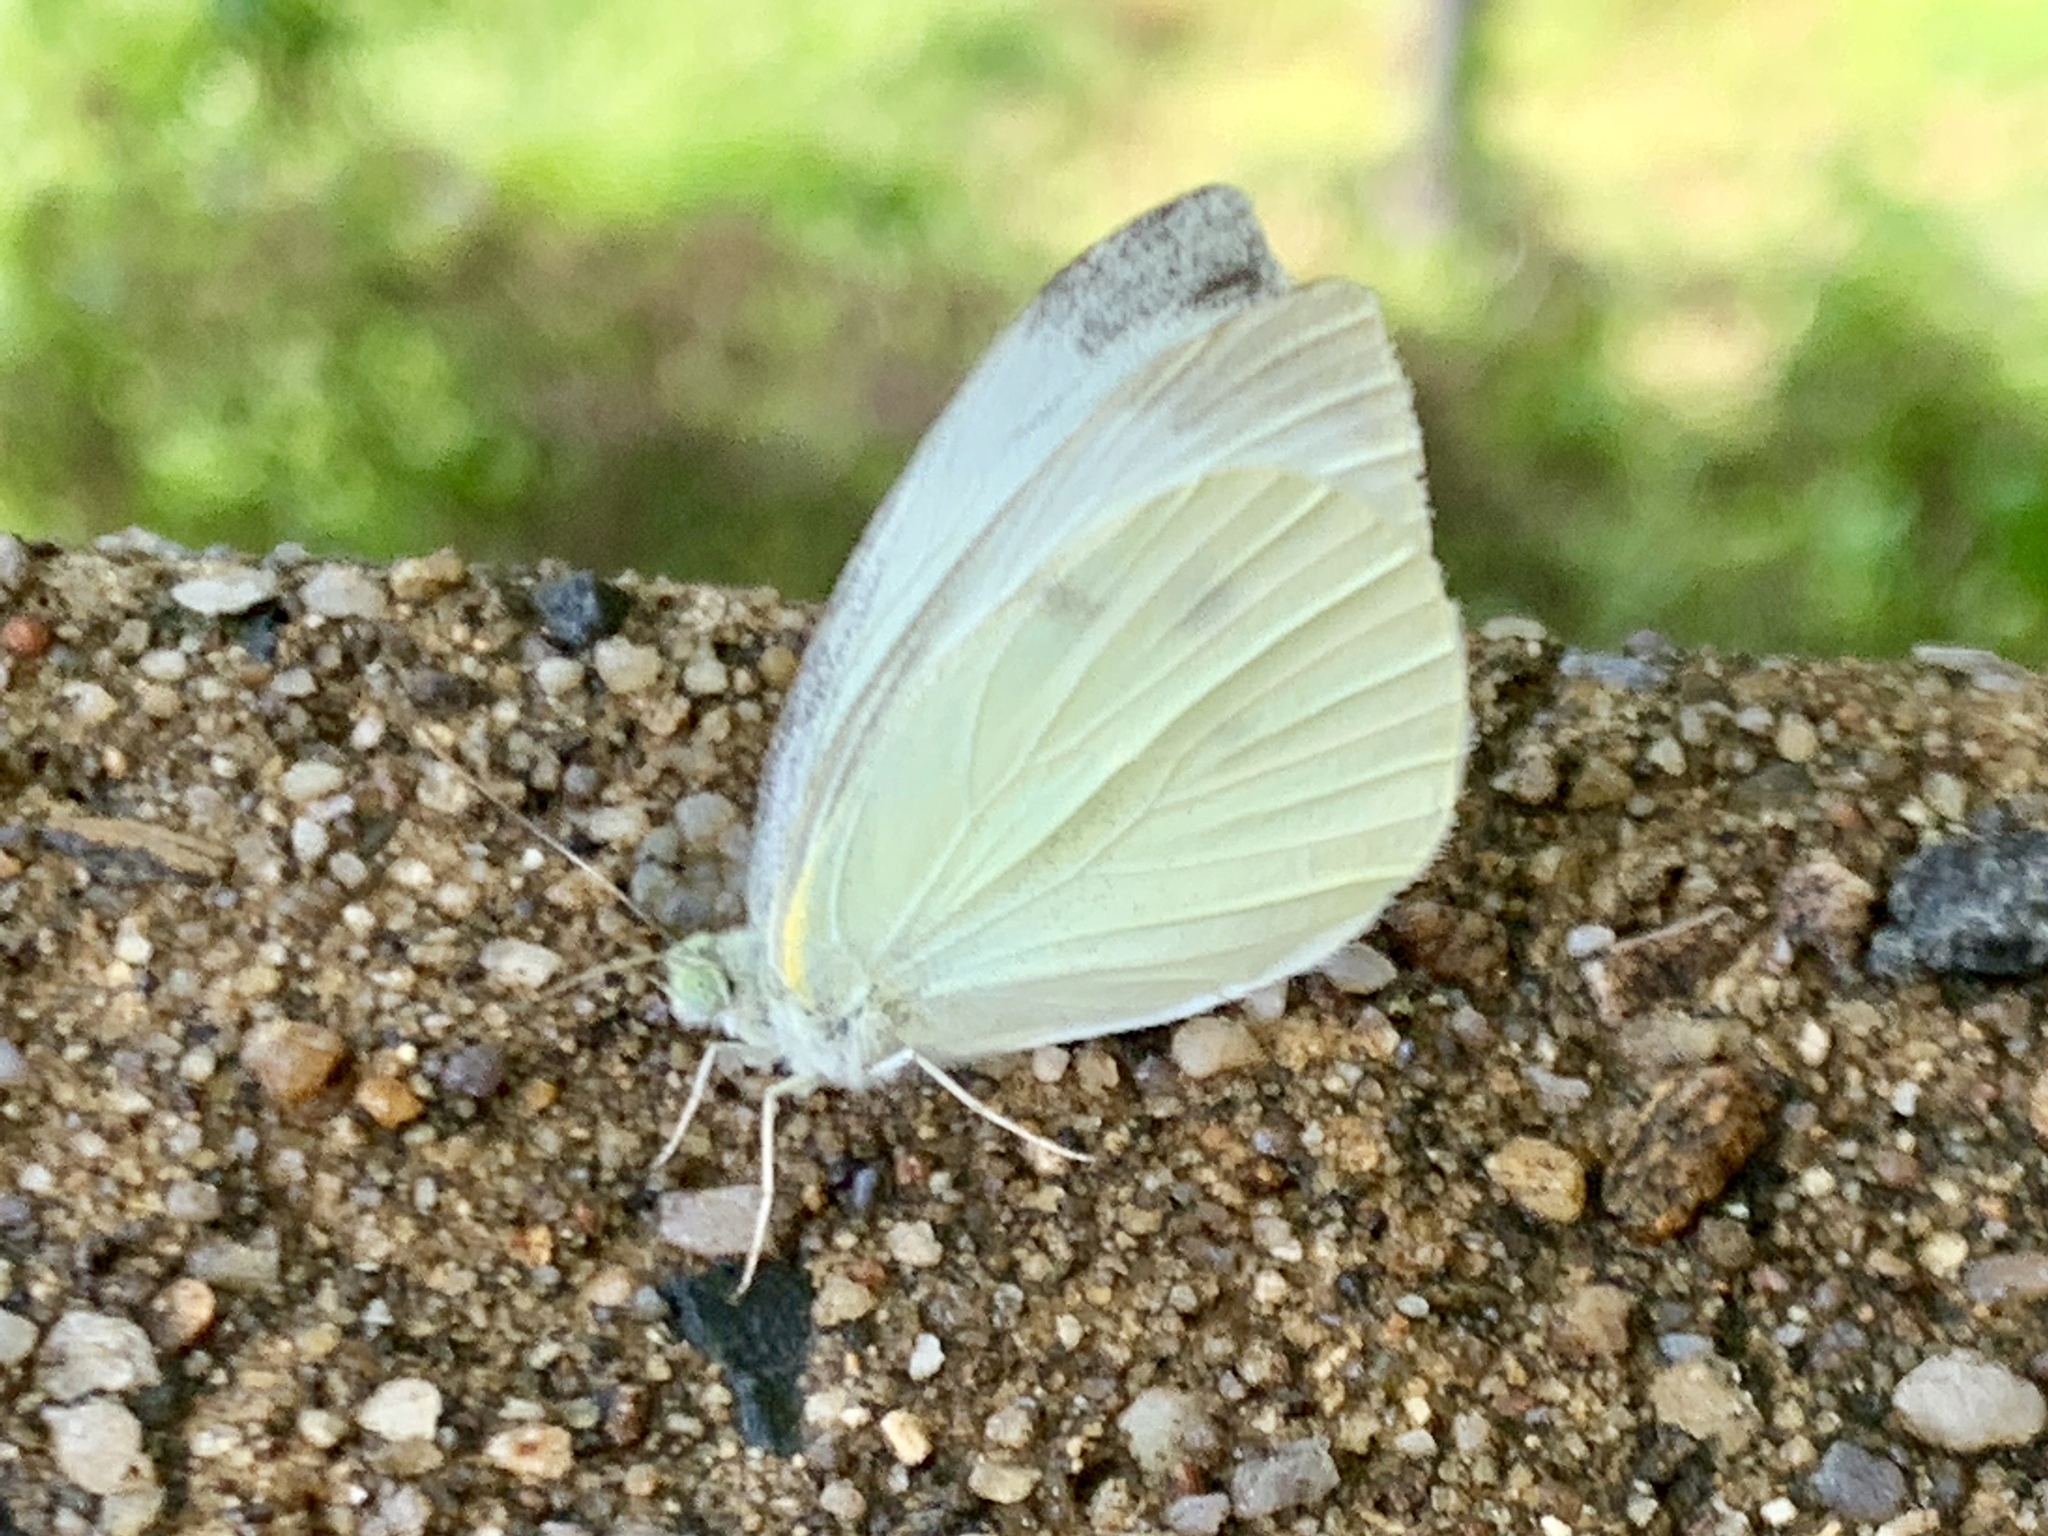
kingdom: Animalia
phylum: Arthropoda
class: Insecta
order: Lepidoptera
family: Pieridae
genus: Pieris
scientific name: Pieris rapae
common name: Small white
